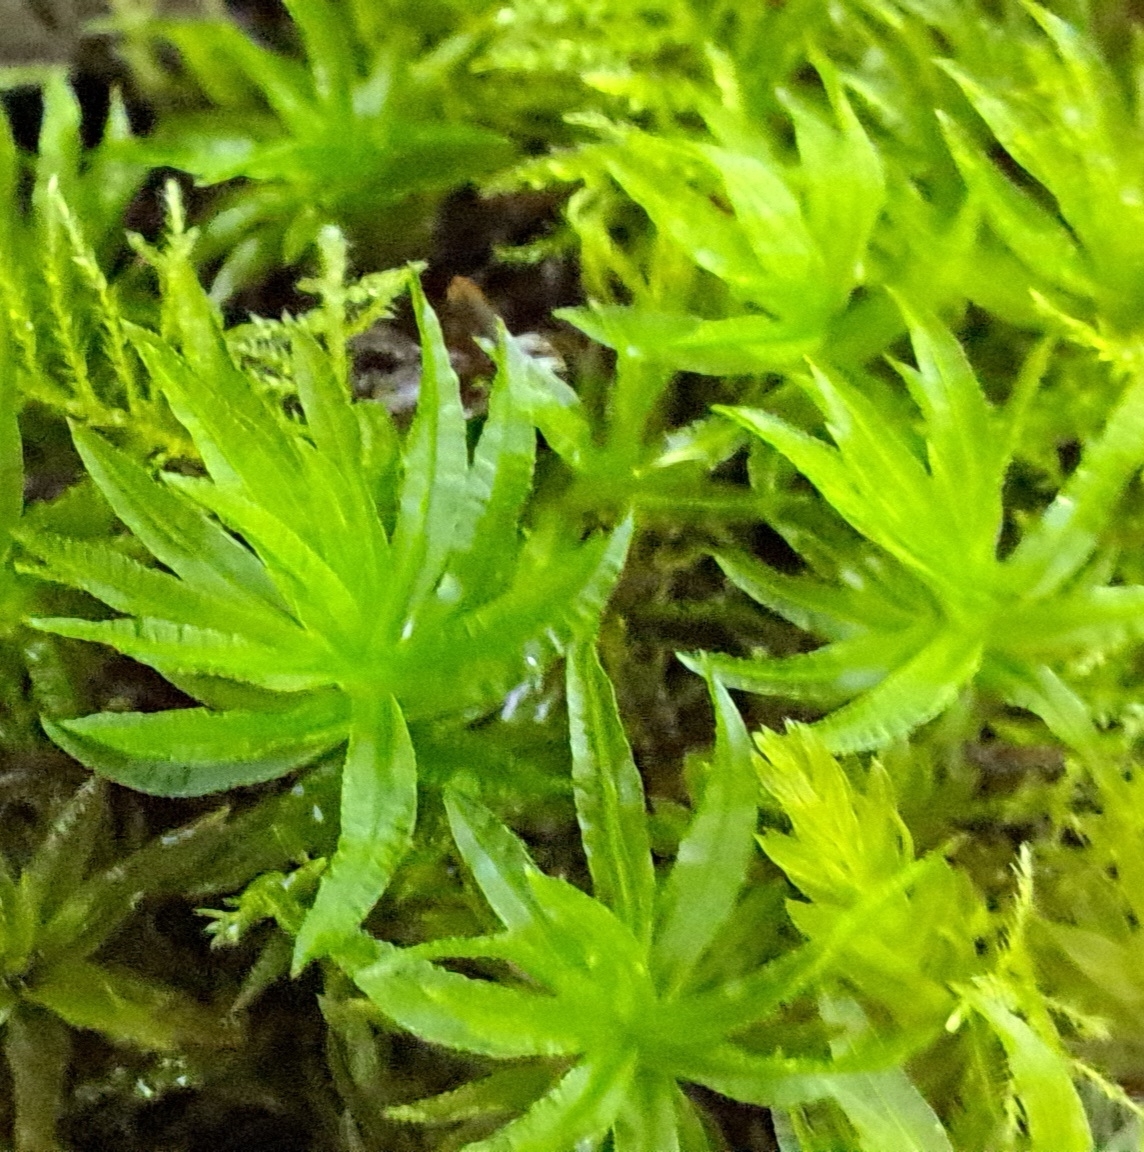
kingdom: Plantae
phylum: Bryophyta
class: Polytrichopsida
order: Polytrichales
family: Polytrichaceae
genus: Atrichum
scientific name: Atrichum undulatum
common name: Common smoothcap
